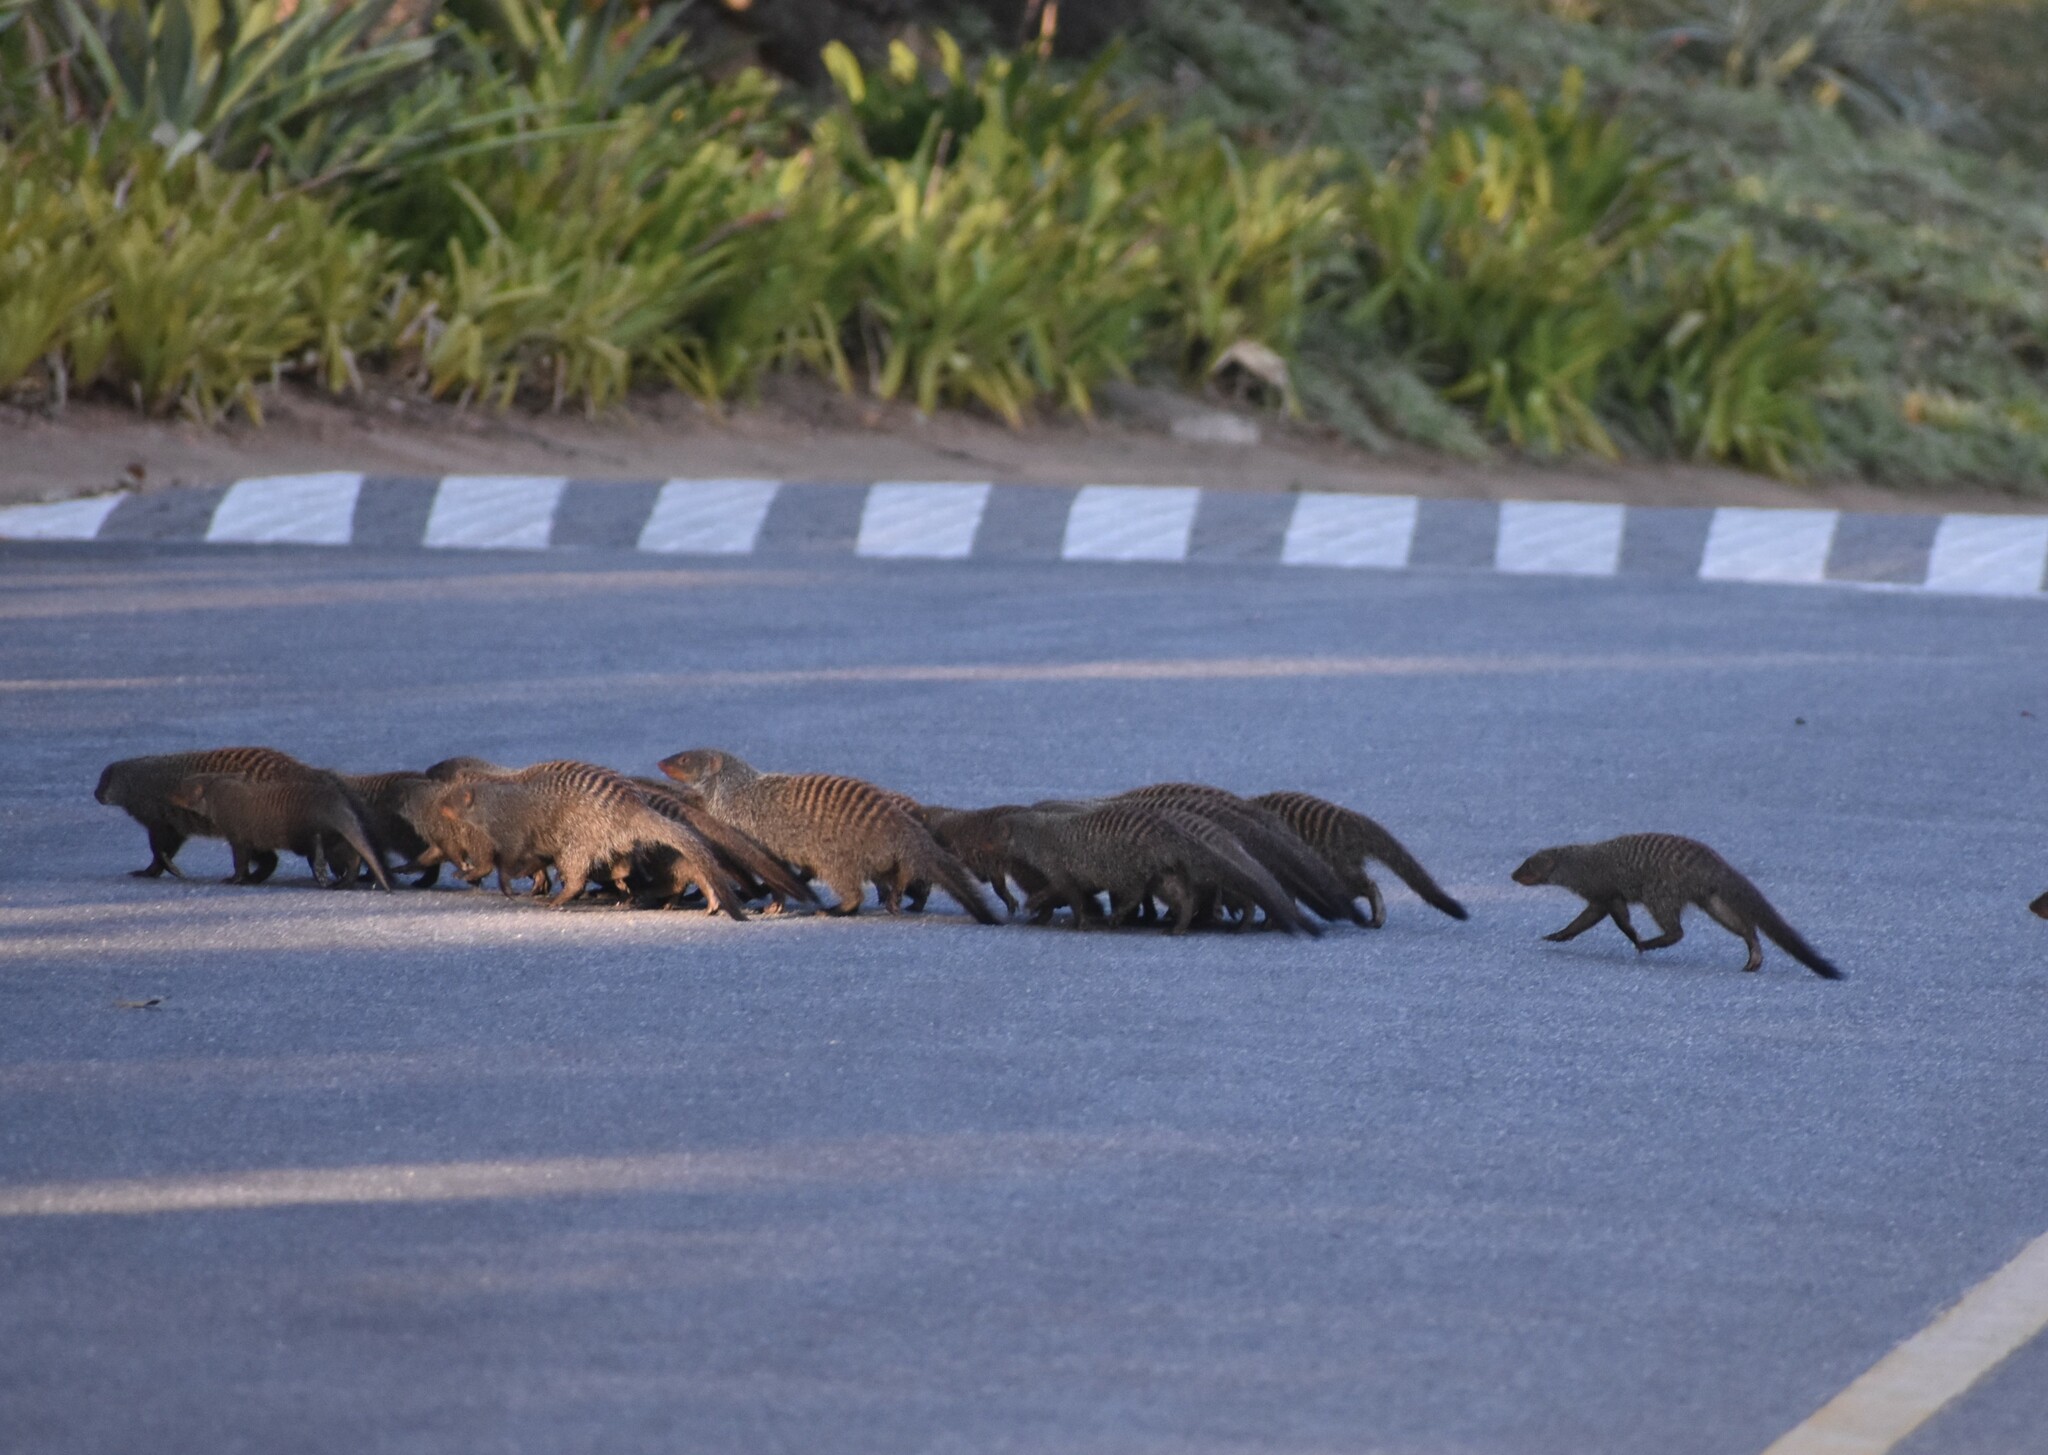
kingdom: Animalia
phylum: Chordata
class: Mammalia
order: Carnivora
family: Herpestidae
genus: Mungos
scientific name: Mungos mungo
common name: Banded mongoose
